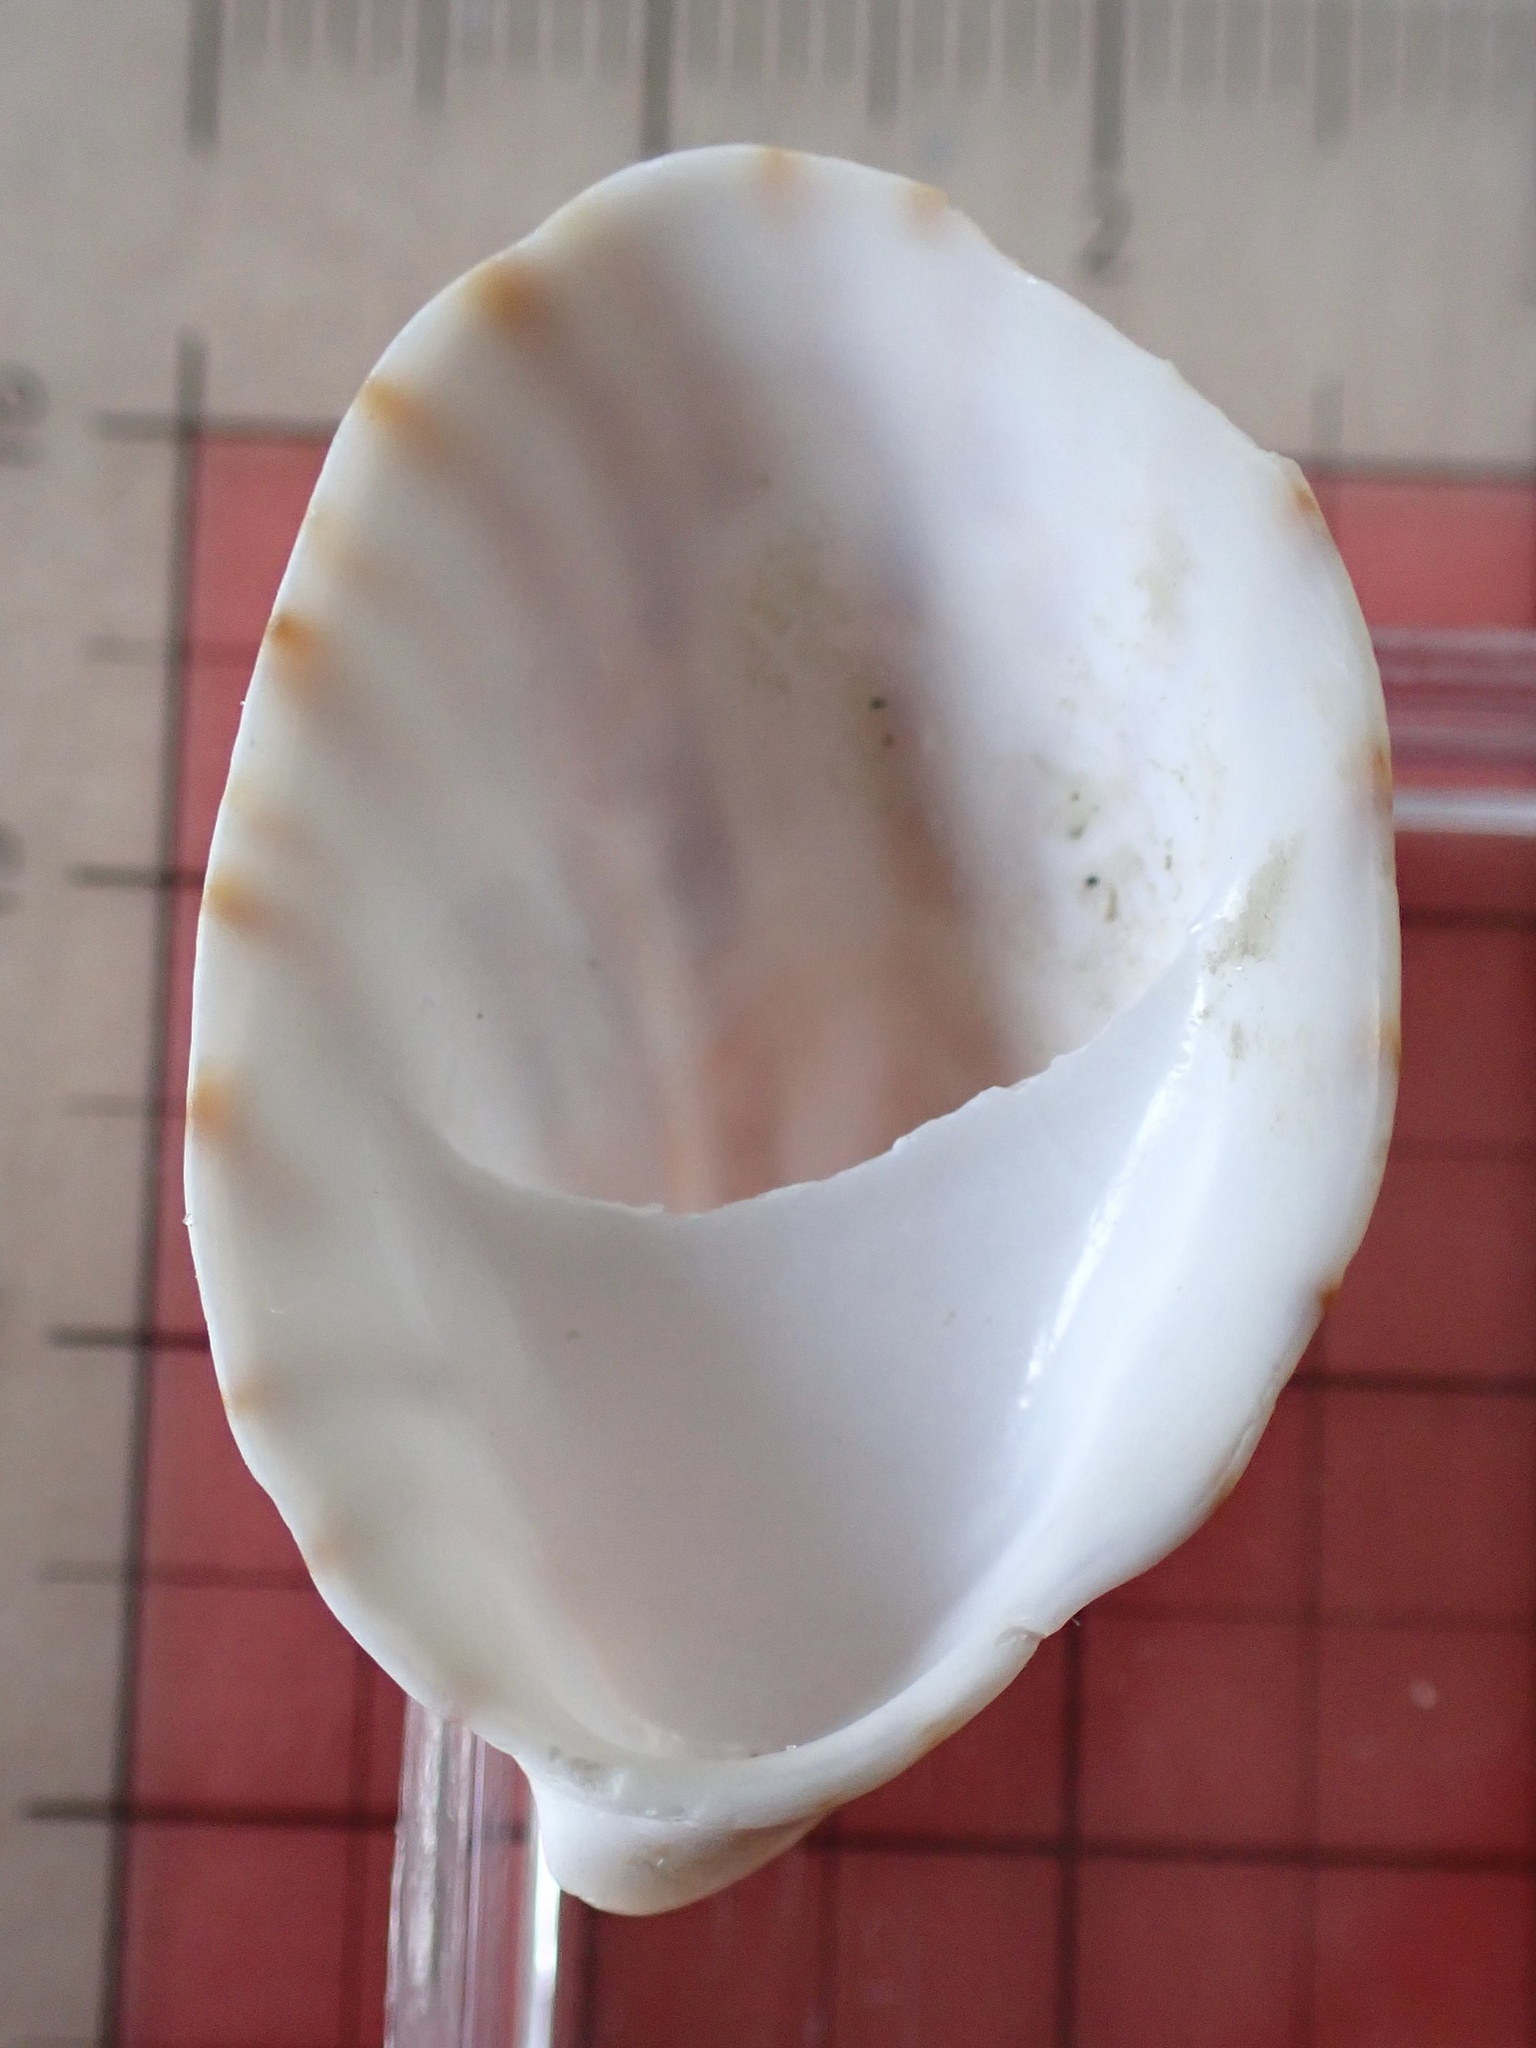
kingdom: Animalia
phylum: Mollusca
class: Gastropoda
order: Littorinimorpha
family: Calyptraeidae
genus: Crepidula
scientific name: Crepidula fornicata
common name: Slipper limpet
